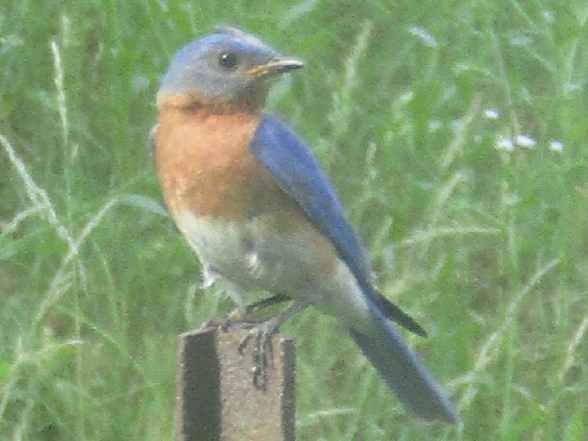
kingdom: Animalia
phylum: Chordata
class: Aves
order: Passeriformes
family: Turdidae
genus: Sialia
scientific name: Sialia sialis
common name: Eastern bluebird
